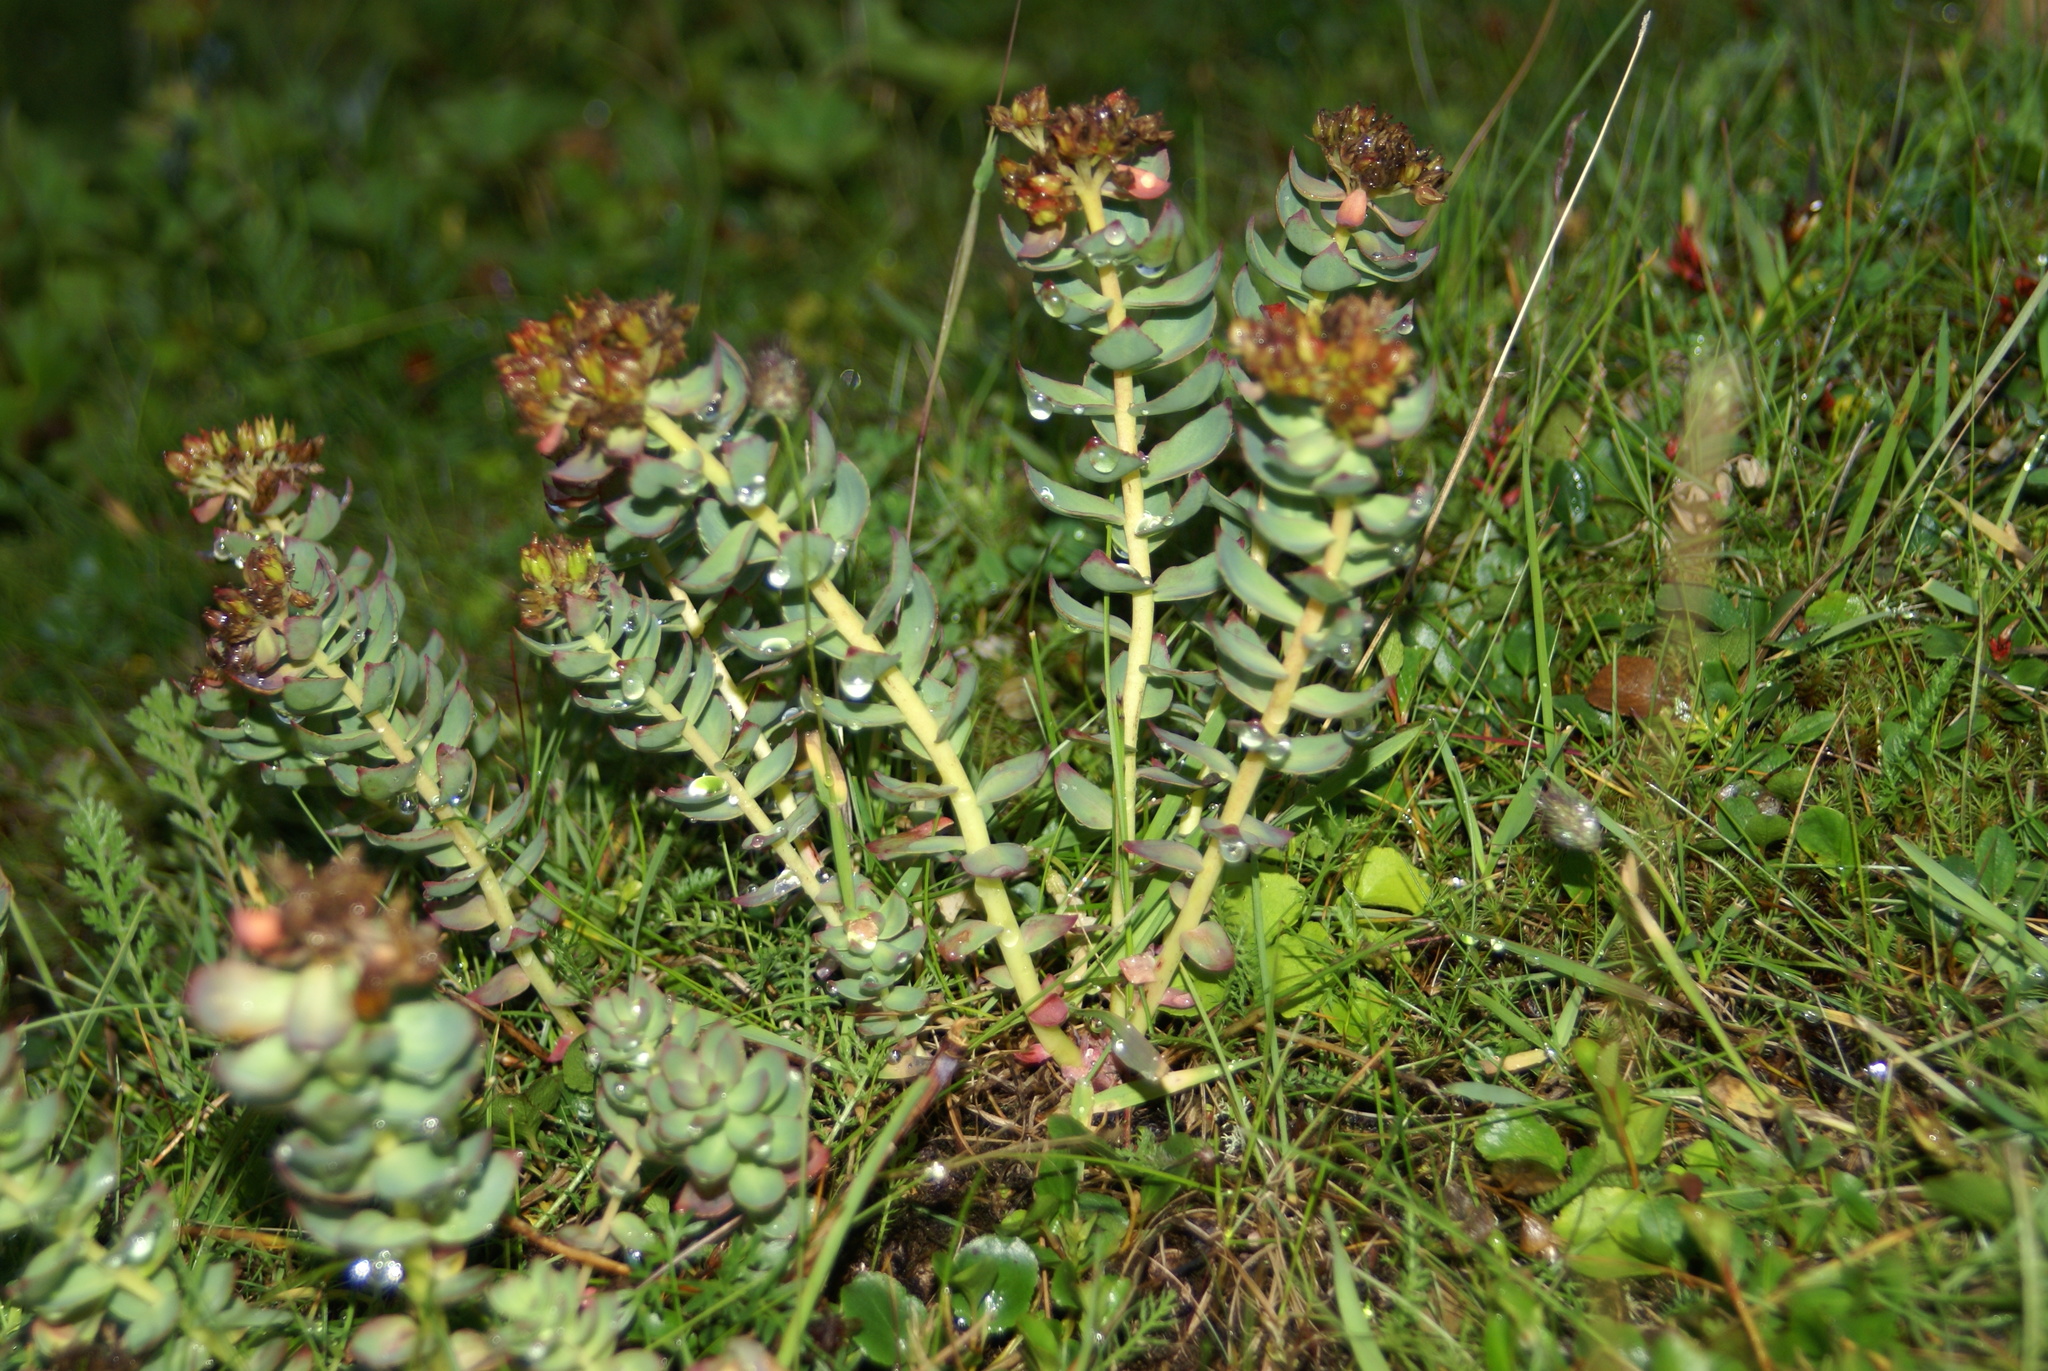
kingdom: Plantae
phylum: Tracheophyta
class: Magnoliopsida
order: Saxifragales
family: Crassulaceae
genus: Rhodiola
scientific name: Rhodiola rosea
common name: Roseroot
